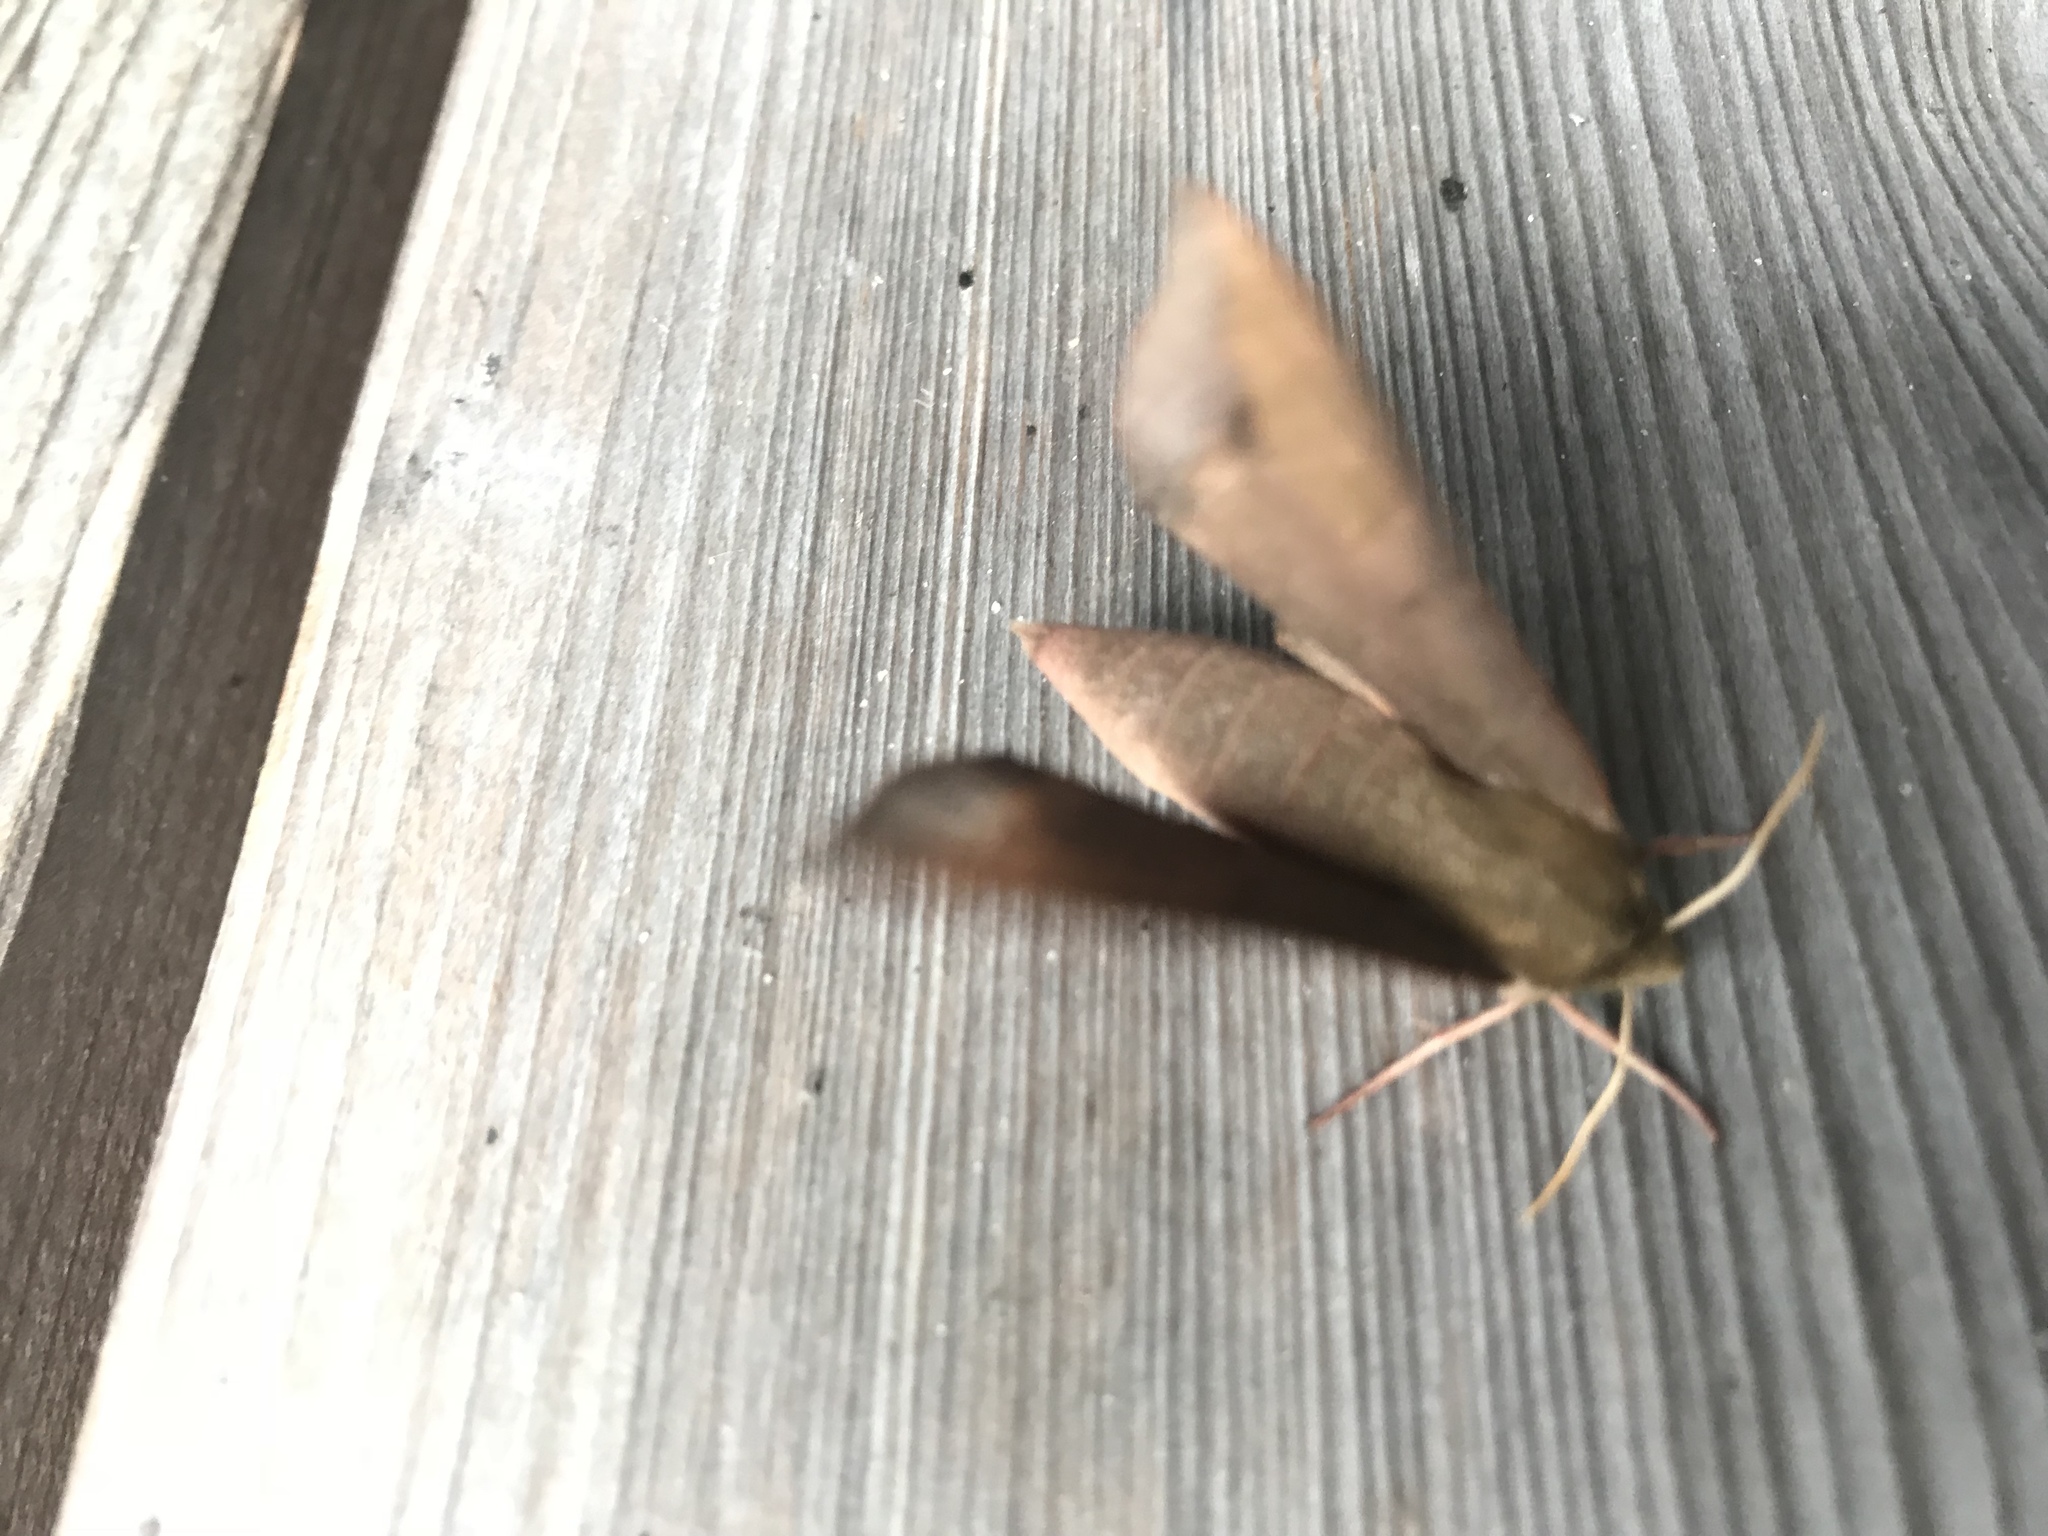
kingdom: Animalia
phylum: Arthropoda
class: Insecta
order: Lepidoptera
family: Sphingidae
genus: Darapsa
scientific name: Darapsa myron
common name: Hog sphinx
